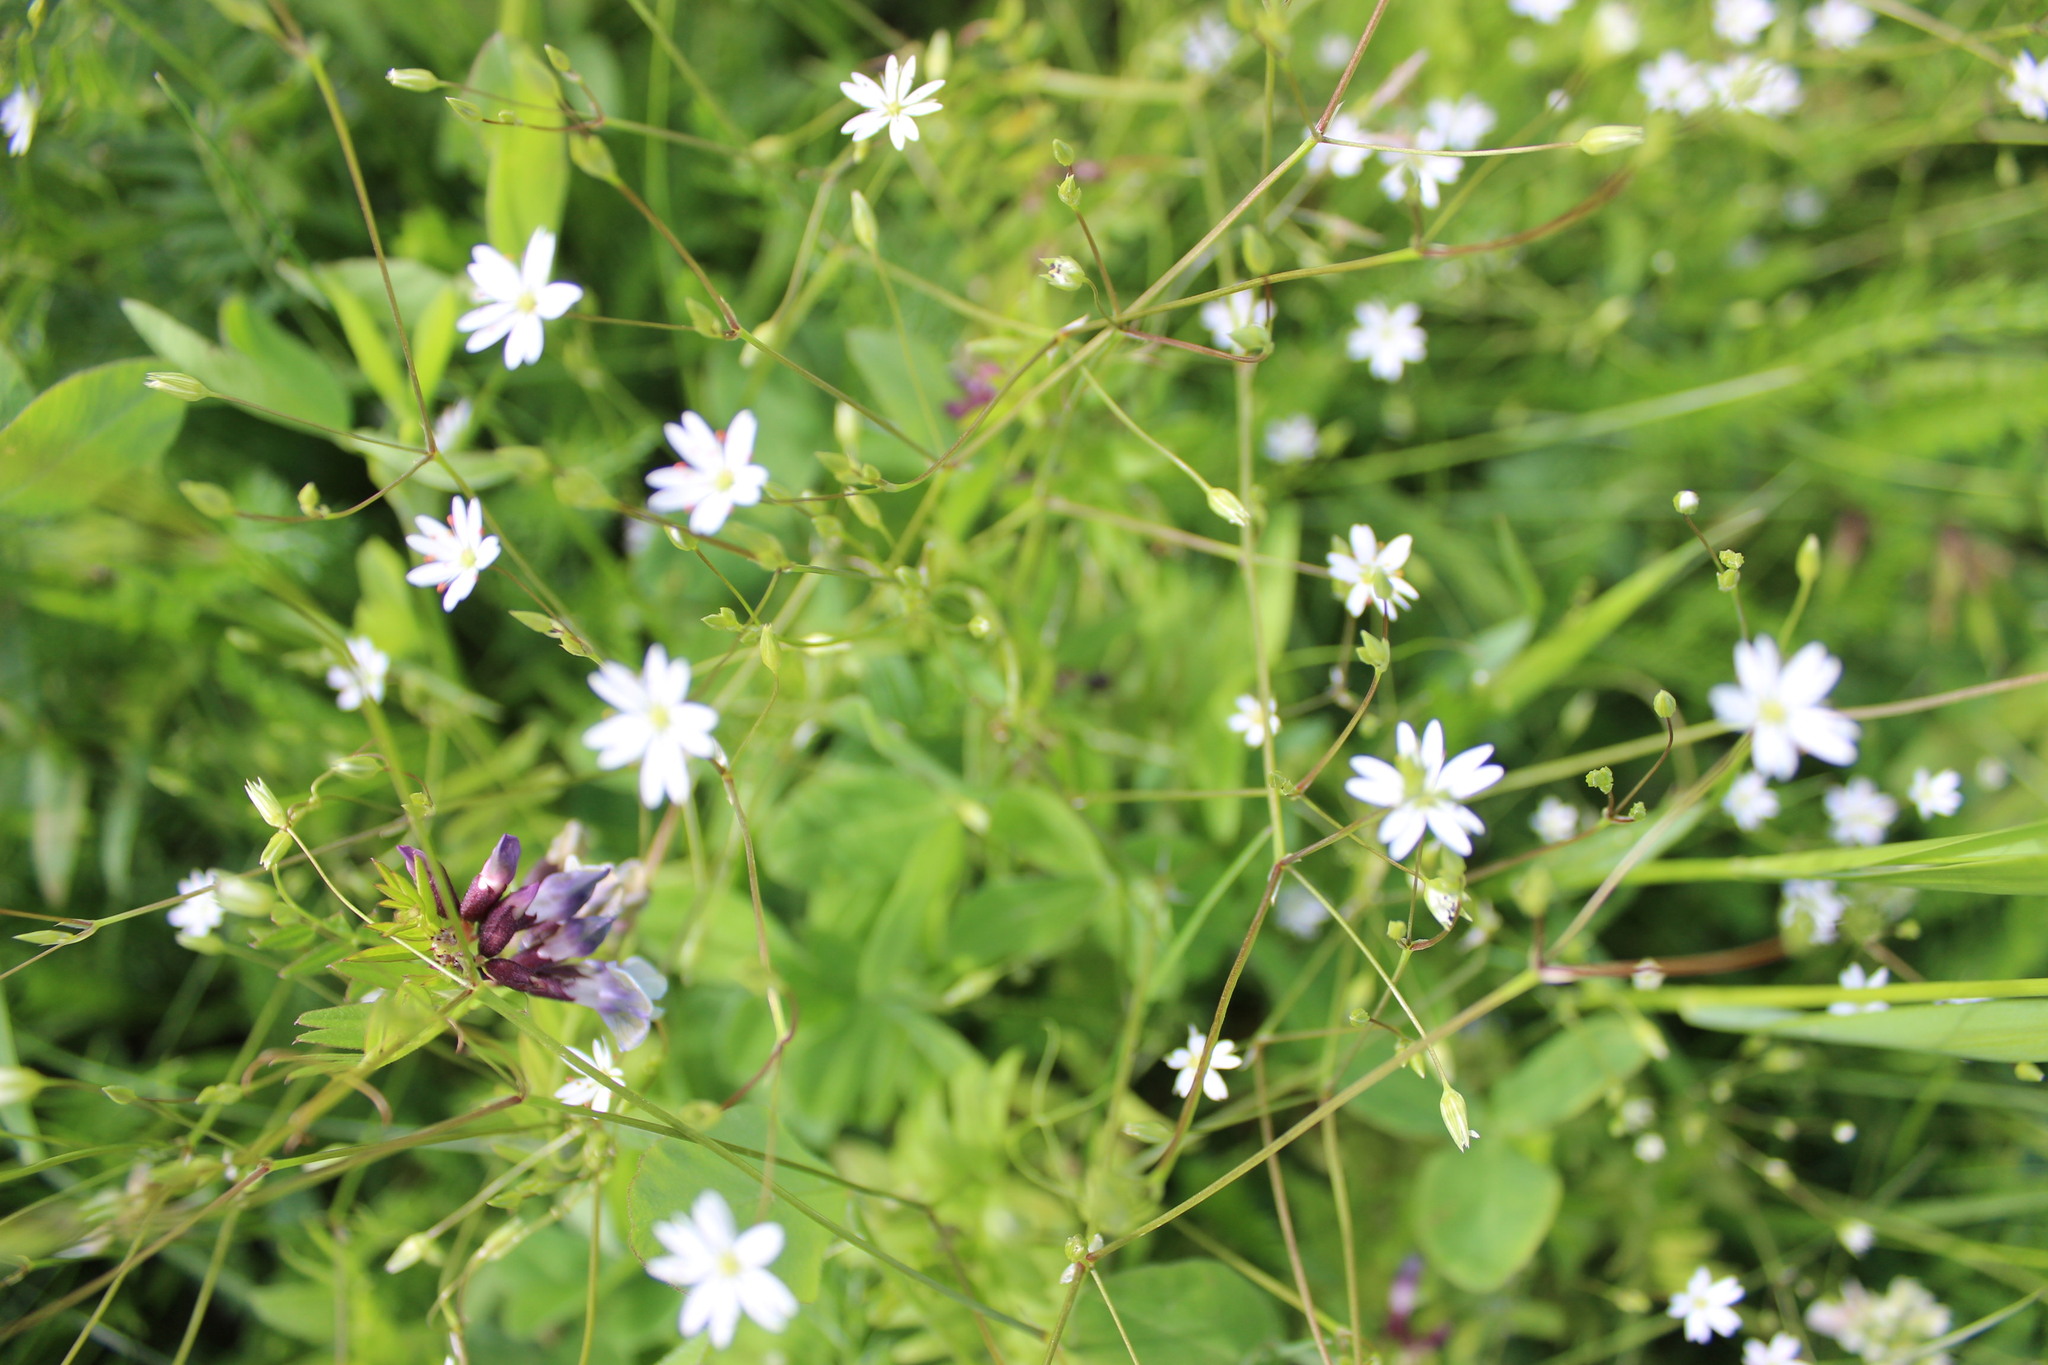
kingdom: Plantae
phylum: Tracheophyta
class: Magnoliopsida
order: Caryophyllales
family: Caryophyllaceae
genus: Stellaria
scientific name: Stellaria graminea
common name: Grass-like starwort
